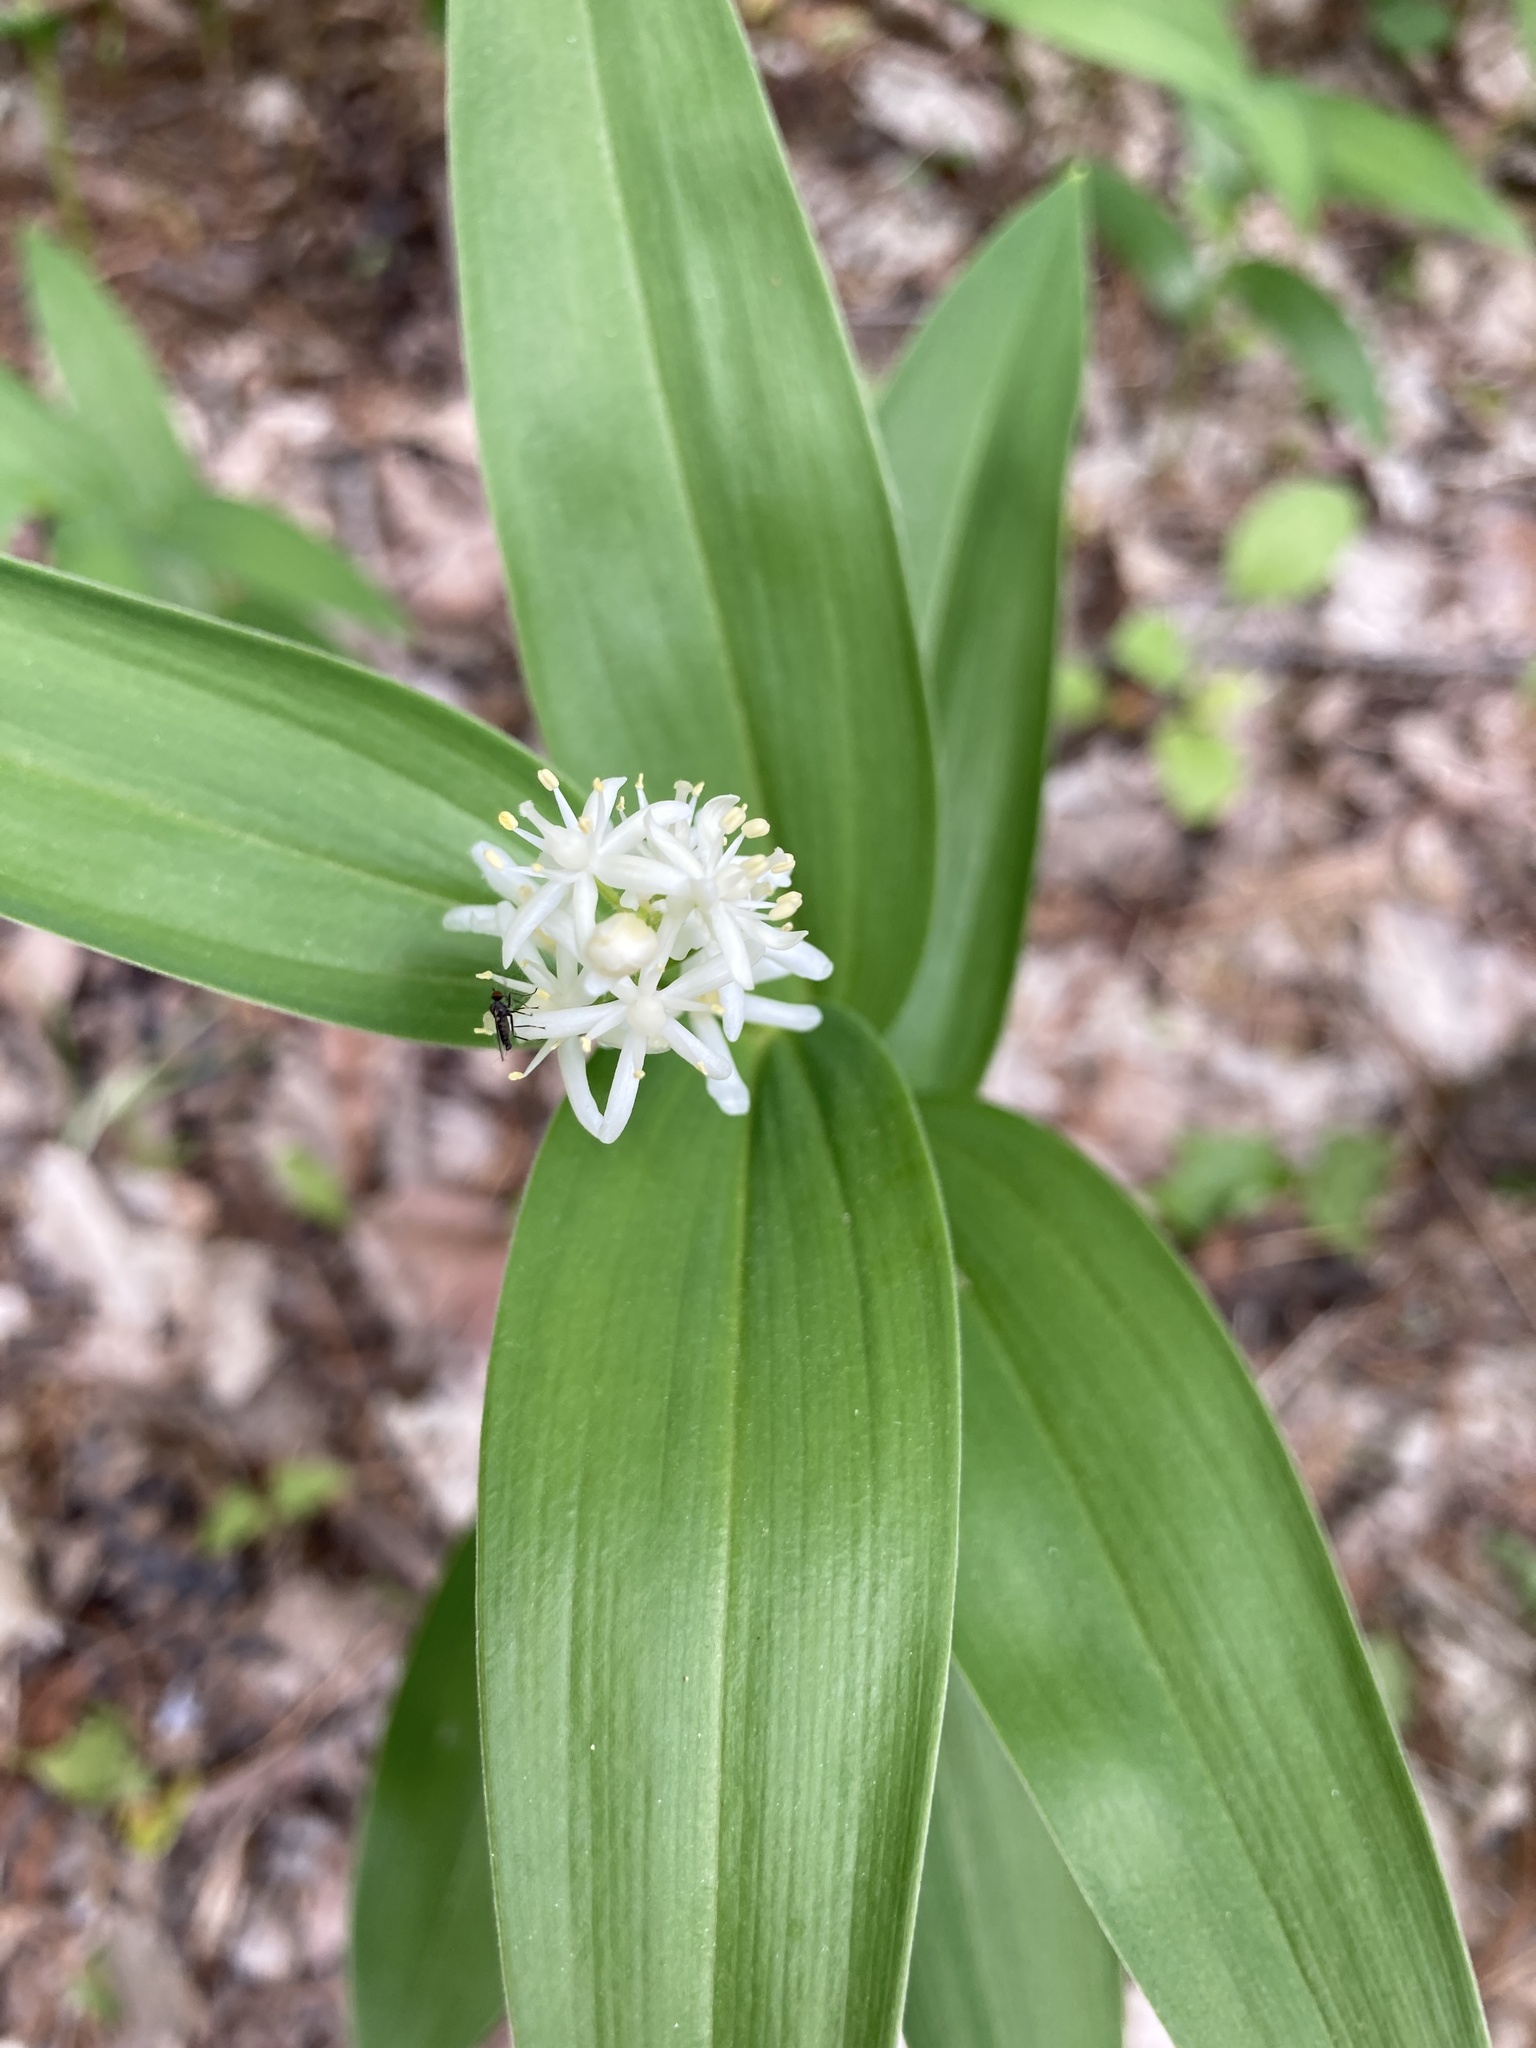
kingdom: Plantae
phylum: Tracheophyta
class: Liliopsida
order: Asparagales
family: Asparagaceae
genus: Maianthemum
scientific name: Maianthemum stellatum
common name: Little false solomon's seal
